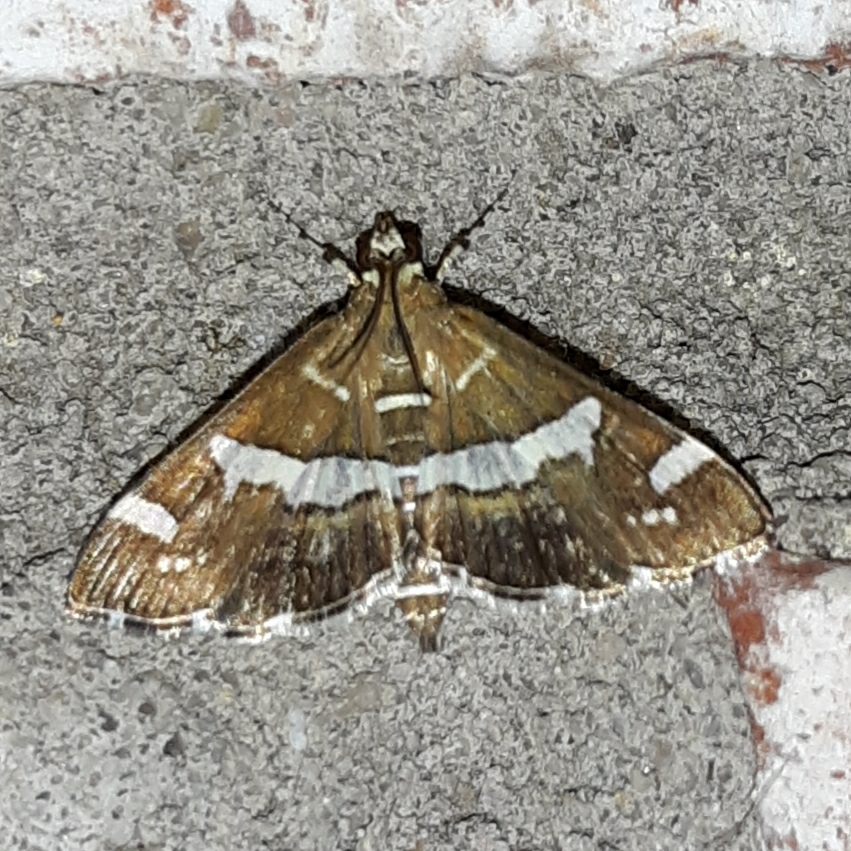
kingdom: Animalia
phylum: Arthropoda
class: Insecta
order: Lepidoptera
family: Crambidae
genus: Spoladea
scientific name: Spoladea recurvalis
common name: Beet webworm moth
